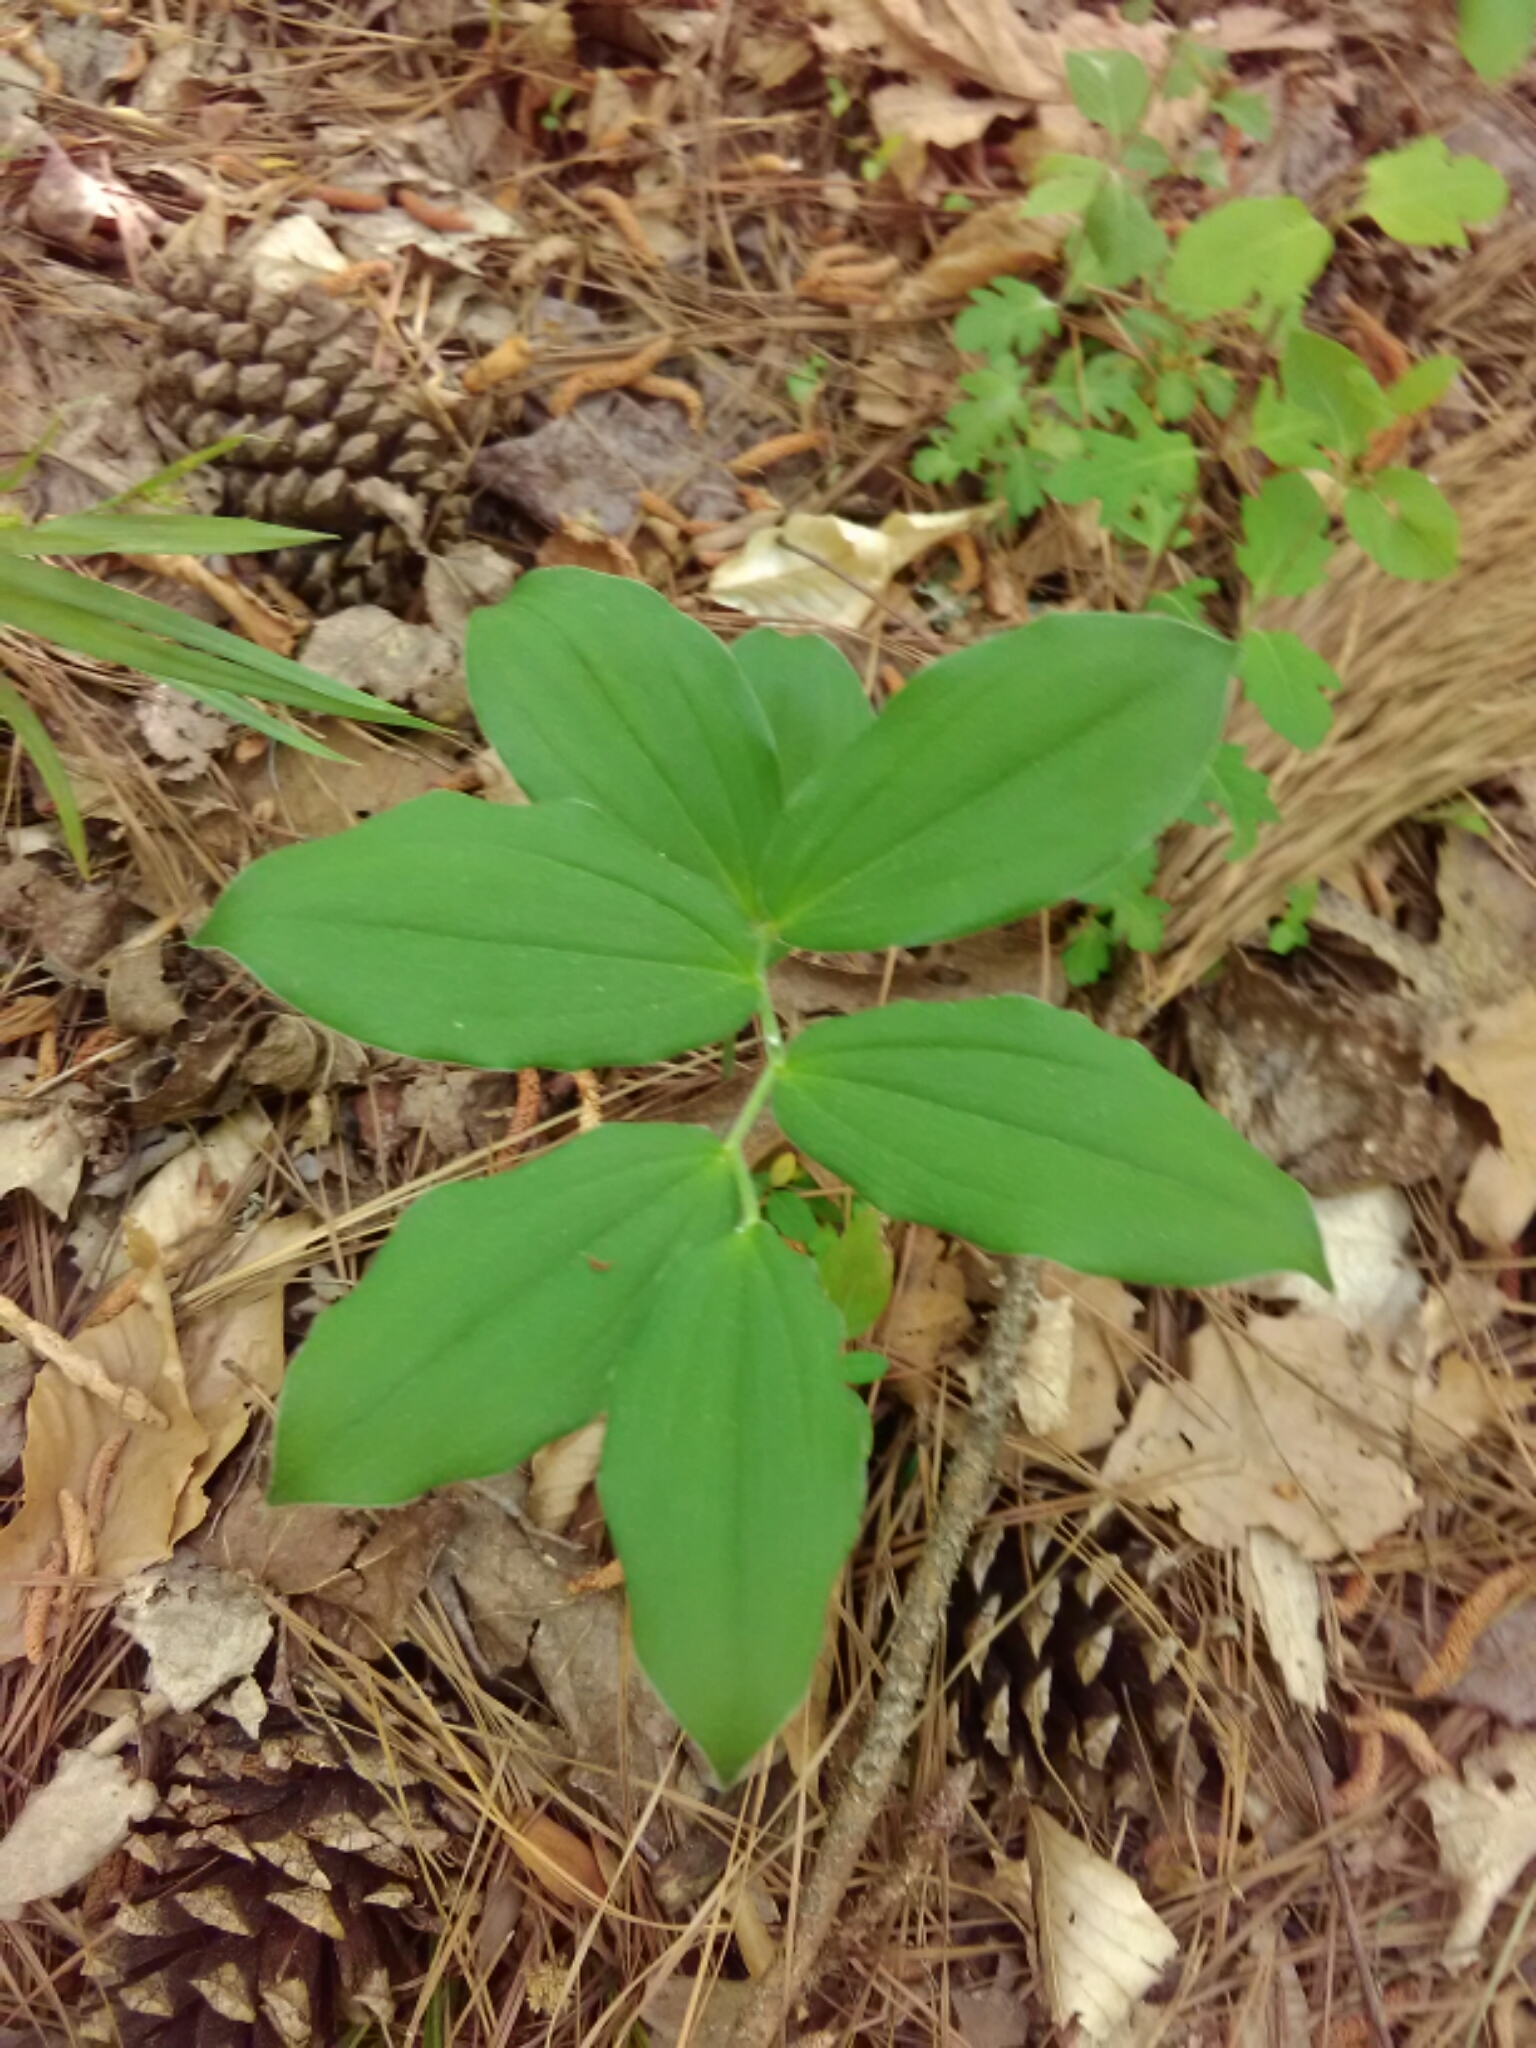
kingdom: Plantae
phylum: Tracheophyta
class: Liliopsida
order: Asparagales
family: Asparagaceae
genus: Maianthemum
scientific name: Maianthemum racemosum
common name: False spikenard
